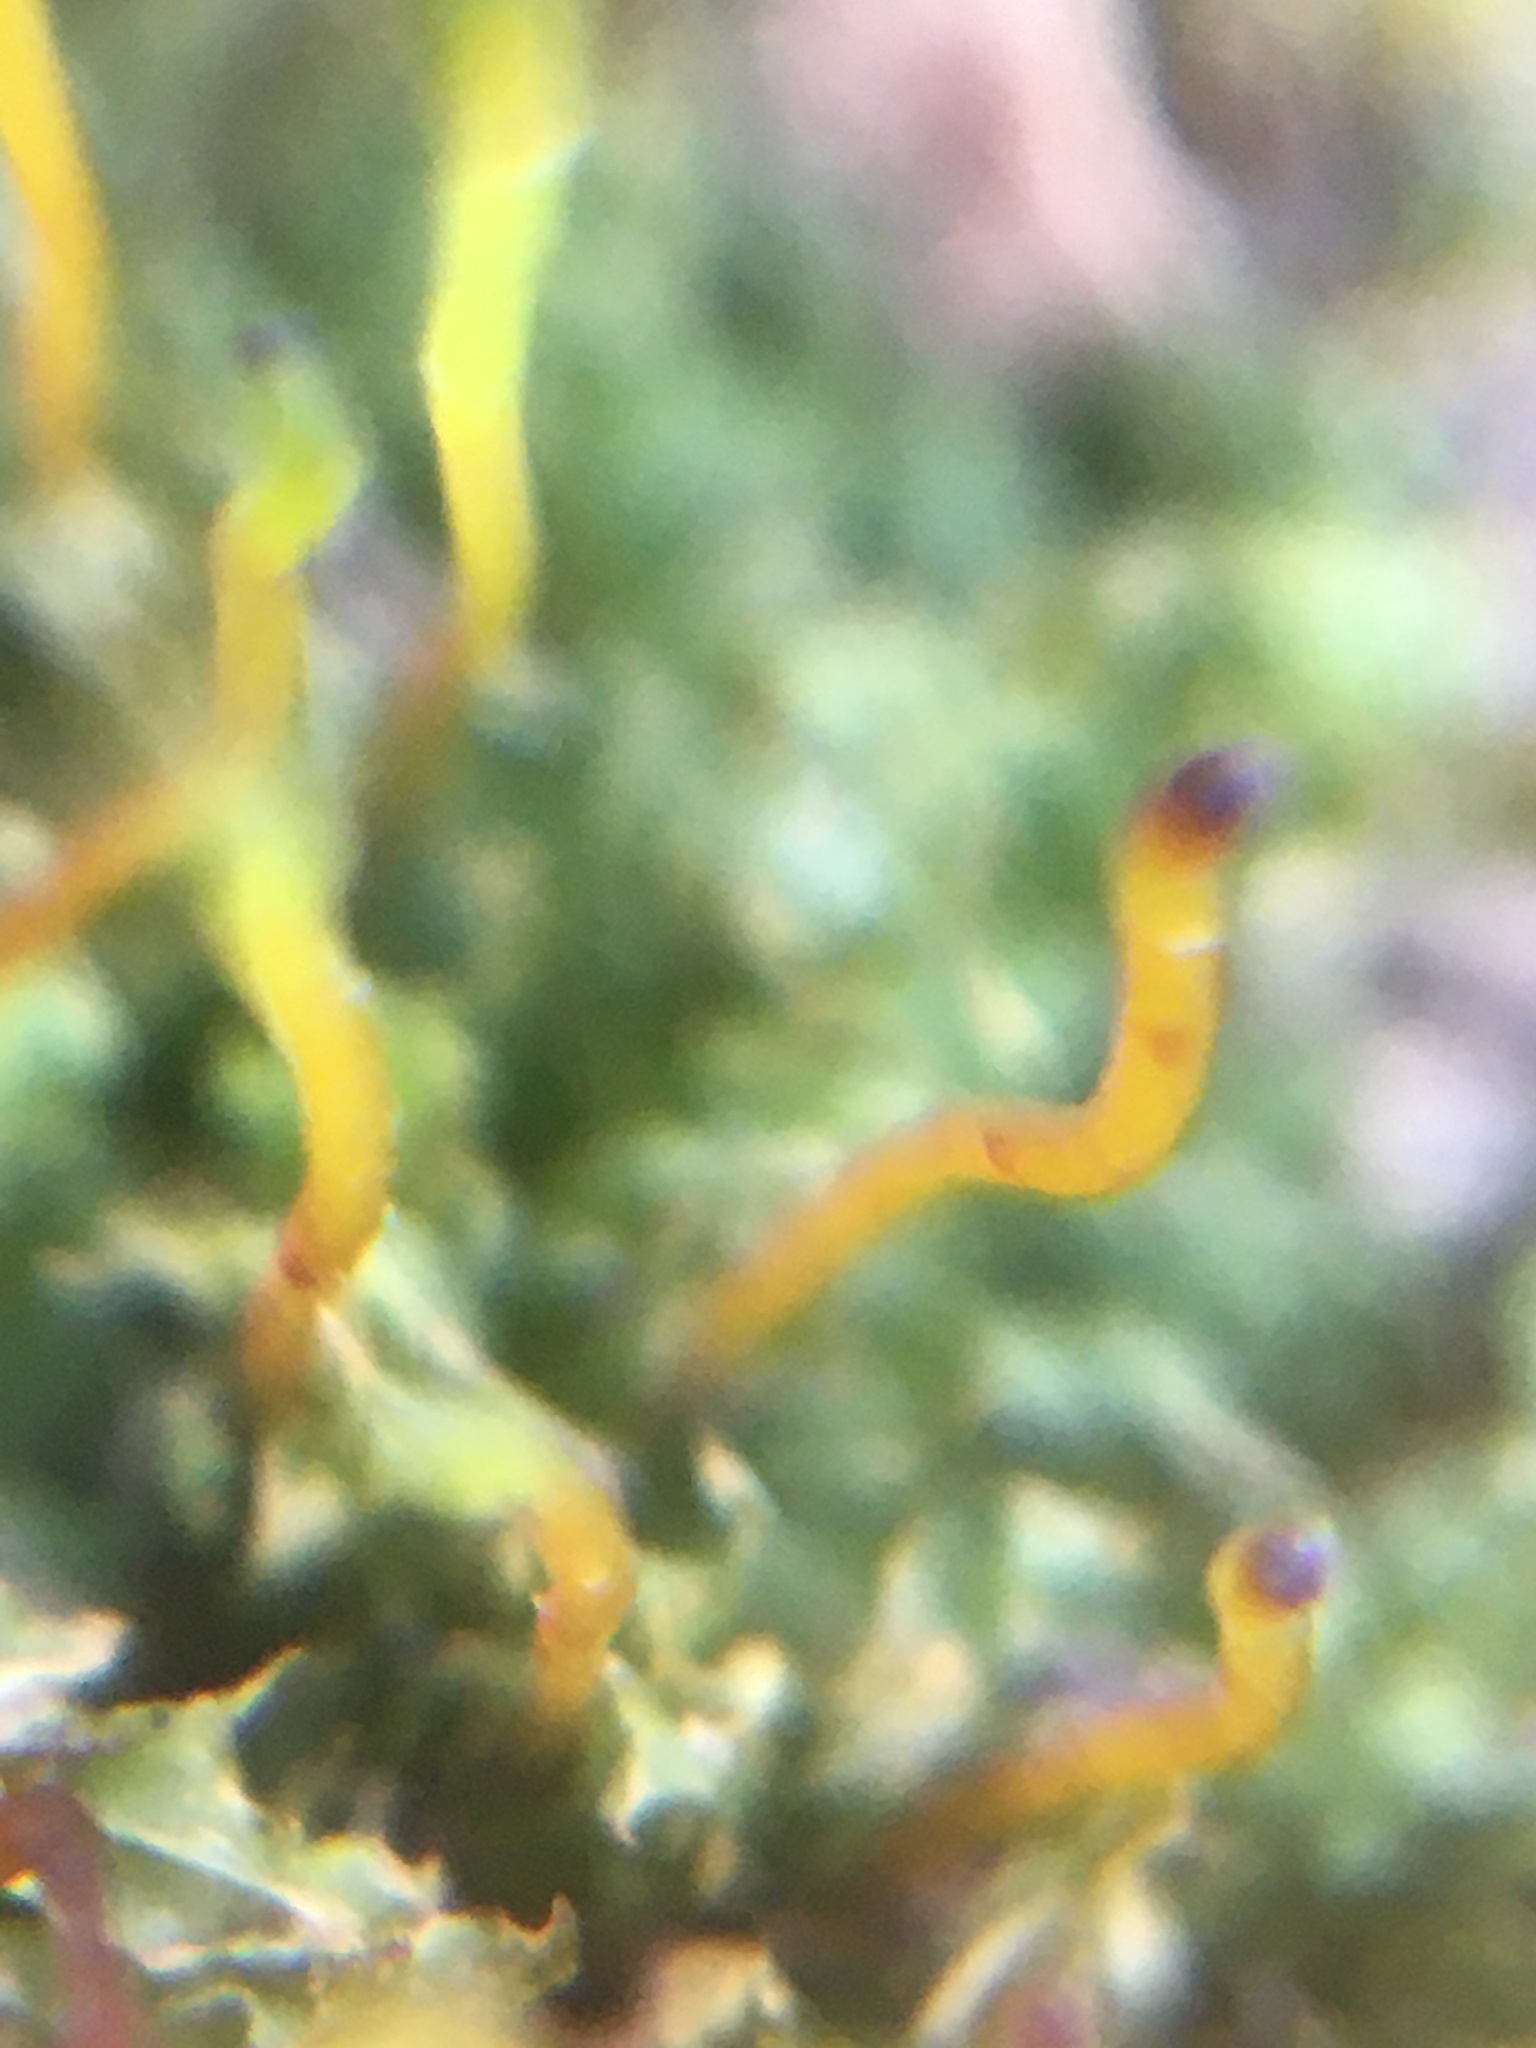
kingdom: Plantae
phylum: Bryophyta
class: Bryopsida
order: Bryales
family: Mniaceae
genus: Plagiomnium
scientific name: Plagiomnium cuspidatum
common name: Woodsy leafy moss
